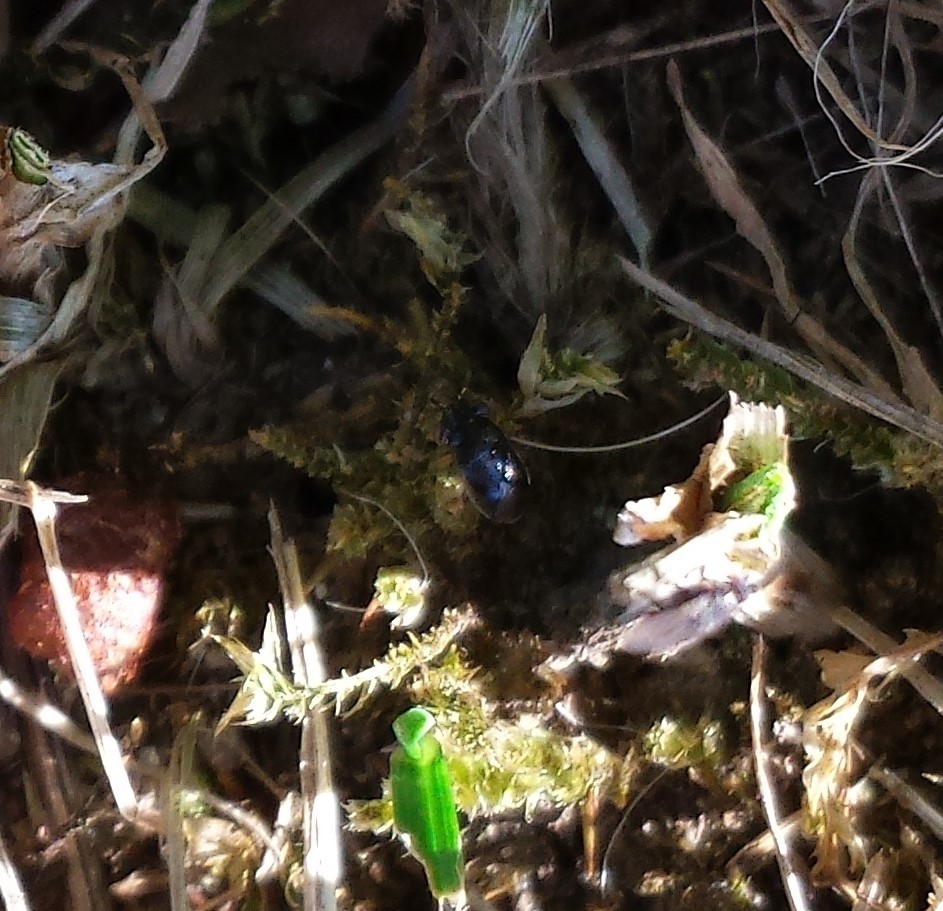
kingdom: Animalia
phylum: Arthropoda
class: Insecta
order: Hemiptera
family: Geocoridae
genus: Geocoris
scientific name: Geocoris uliginosus
